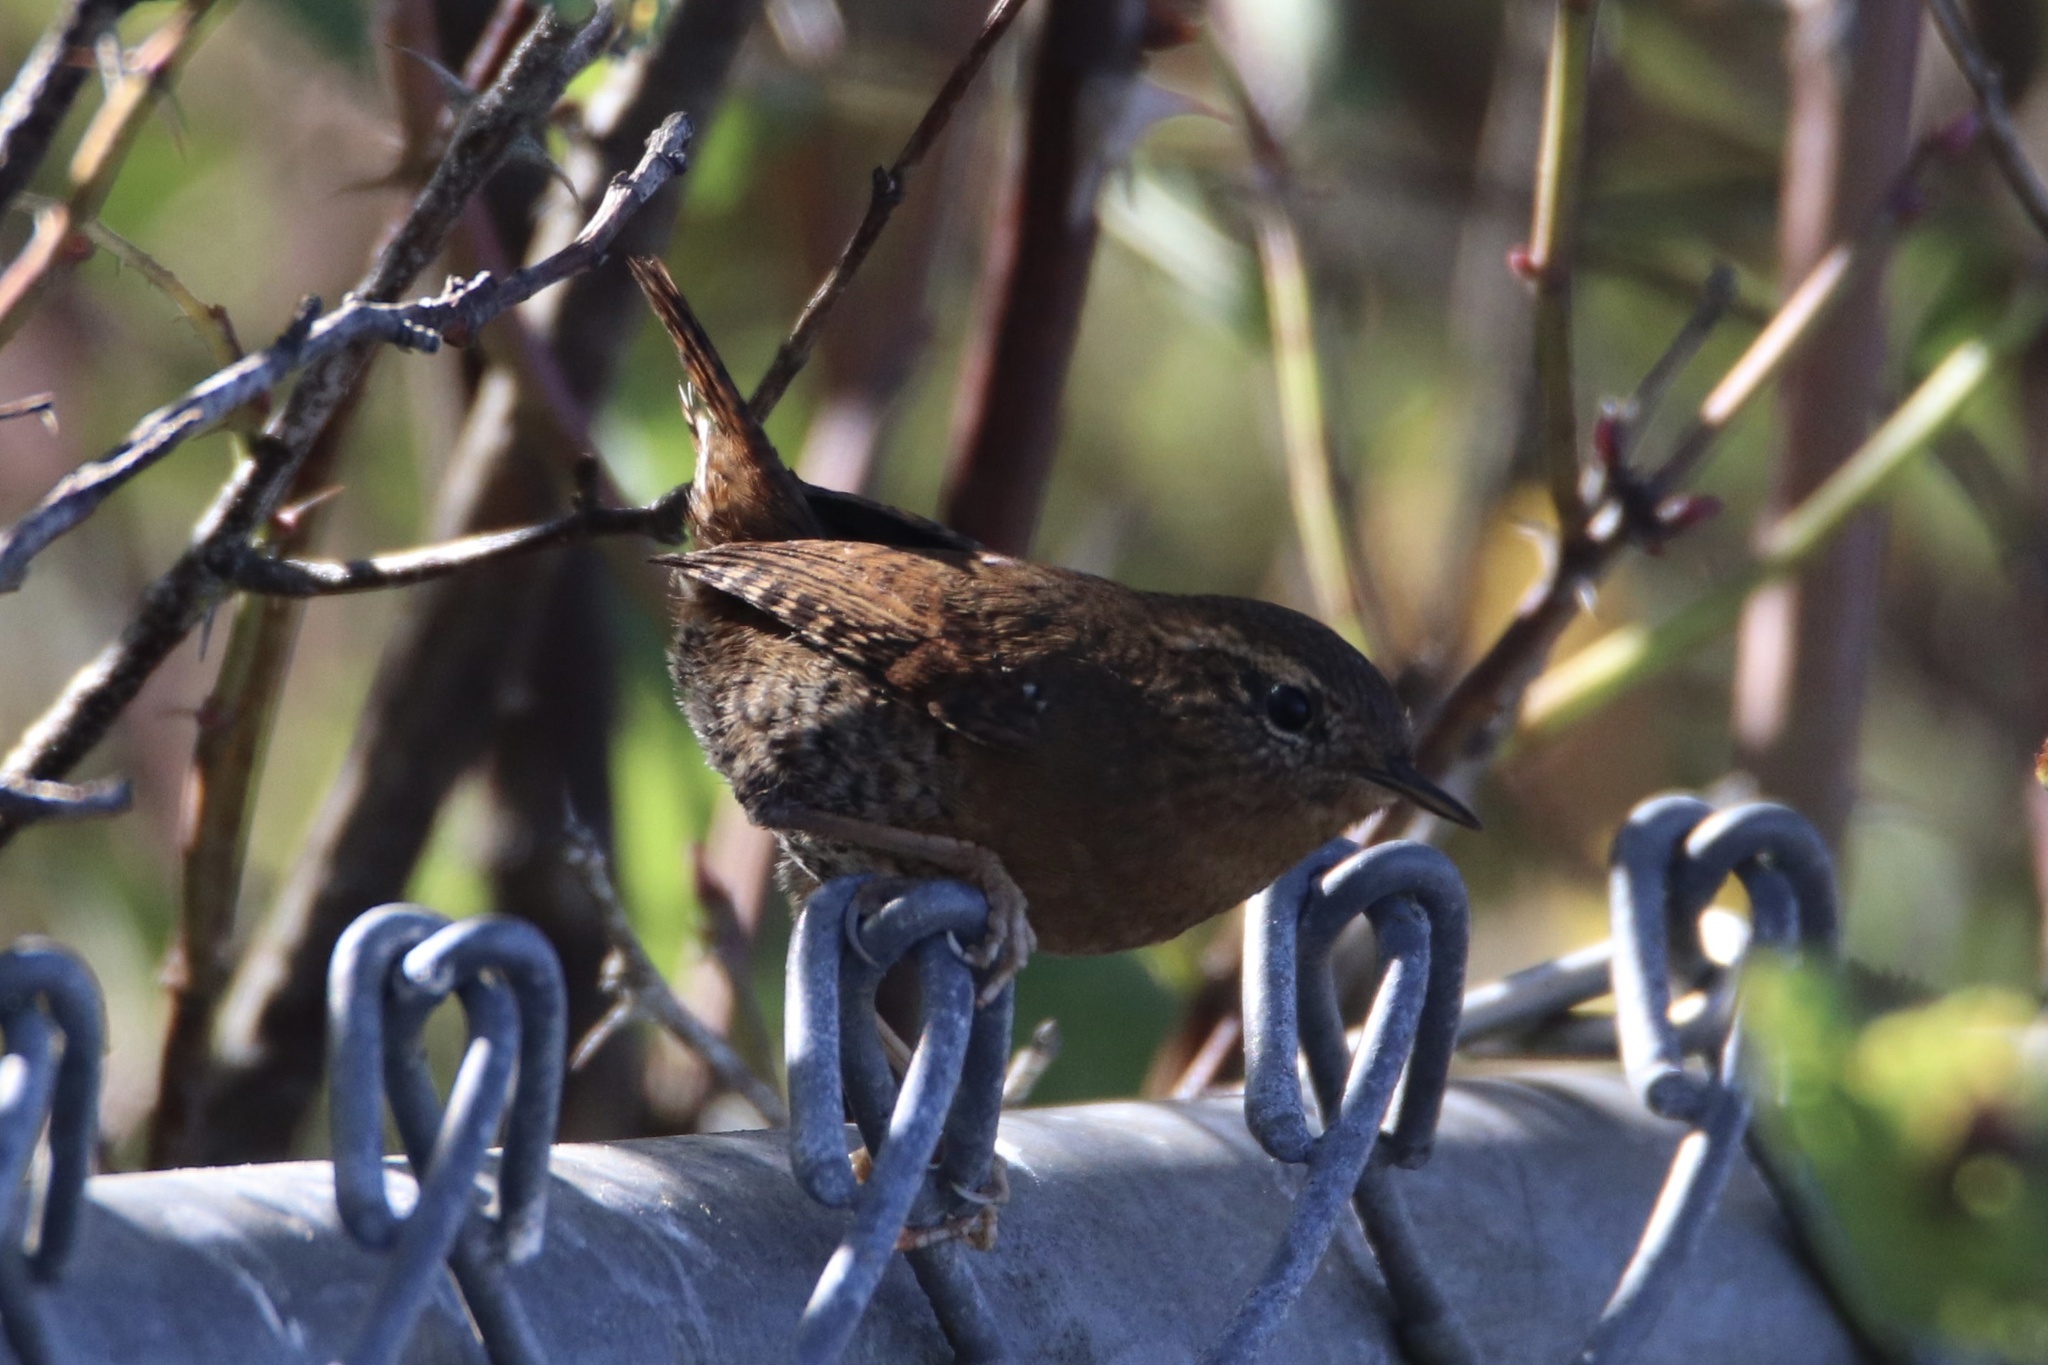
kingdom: Animalia
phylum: Chordata
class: Aves
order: Passeriformes
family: Troglodytidae
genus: Troglodytes
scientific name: Troglodytes pacificus
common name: Pacific wren
